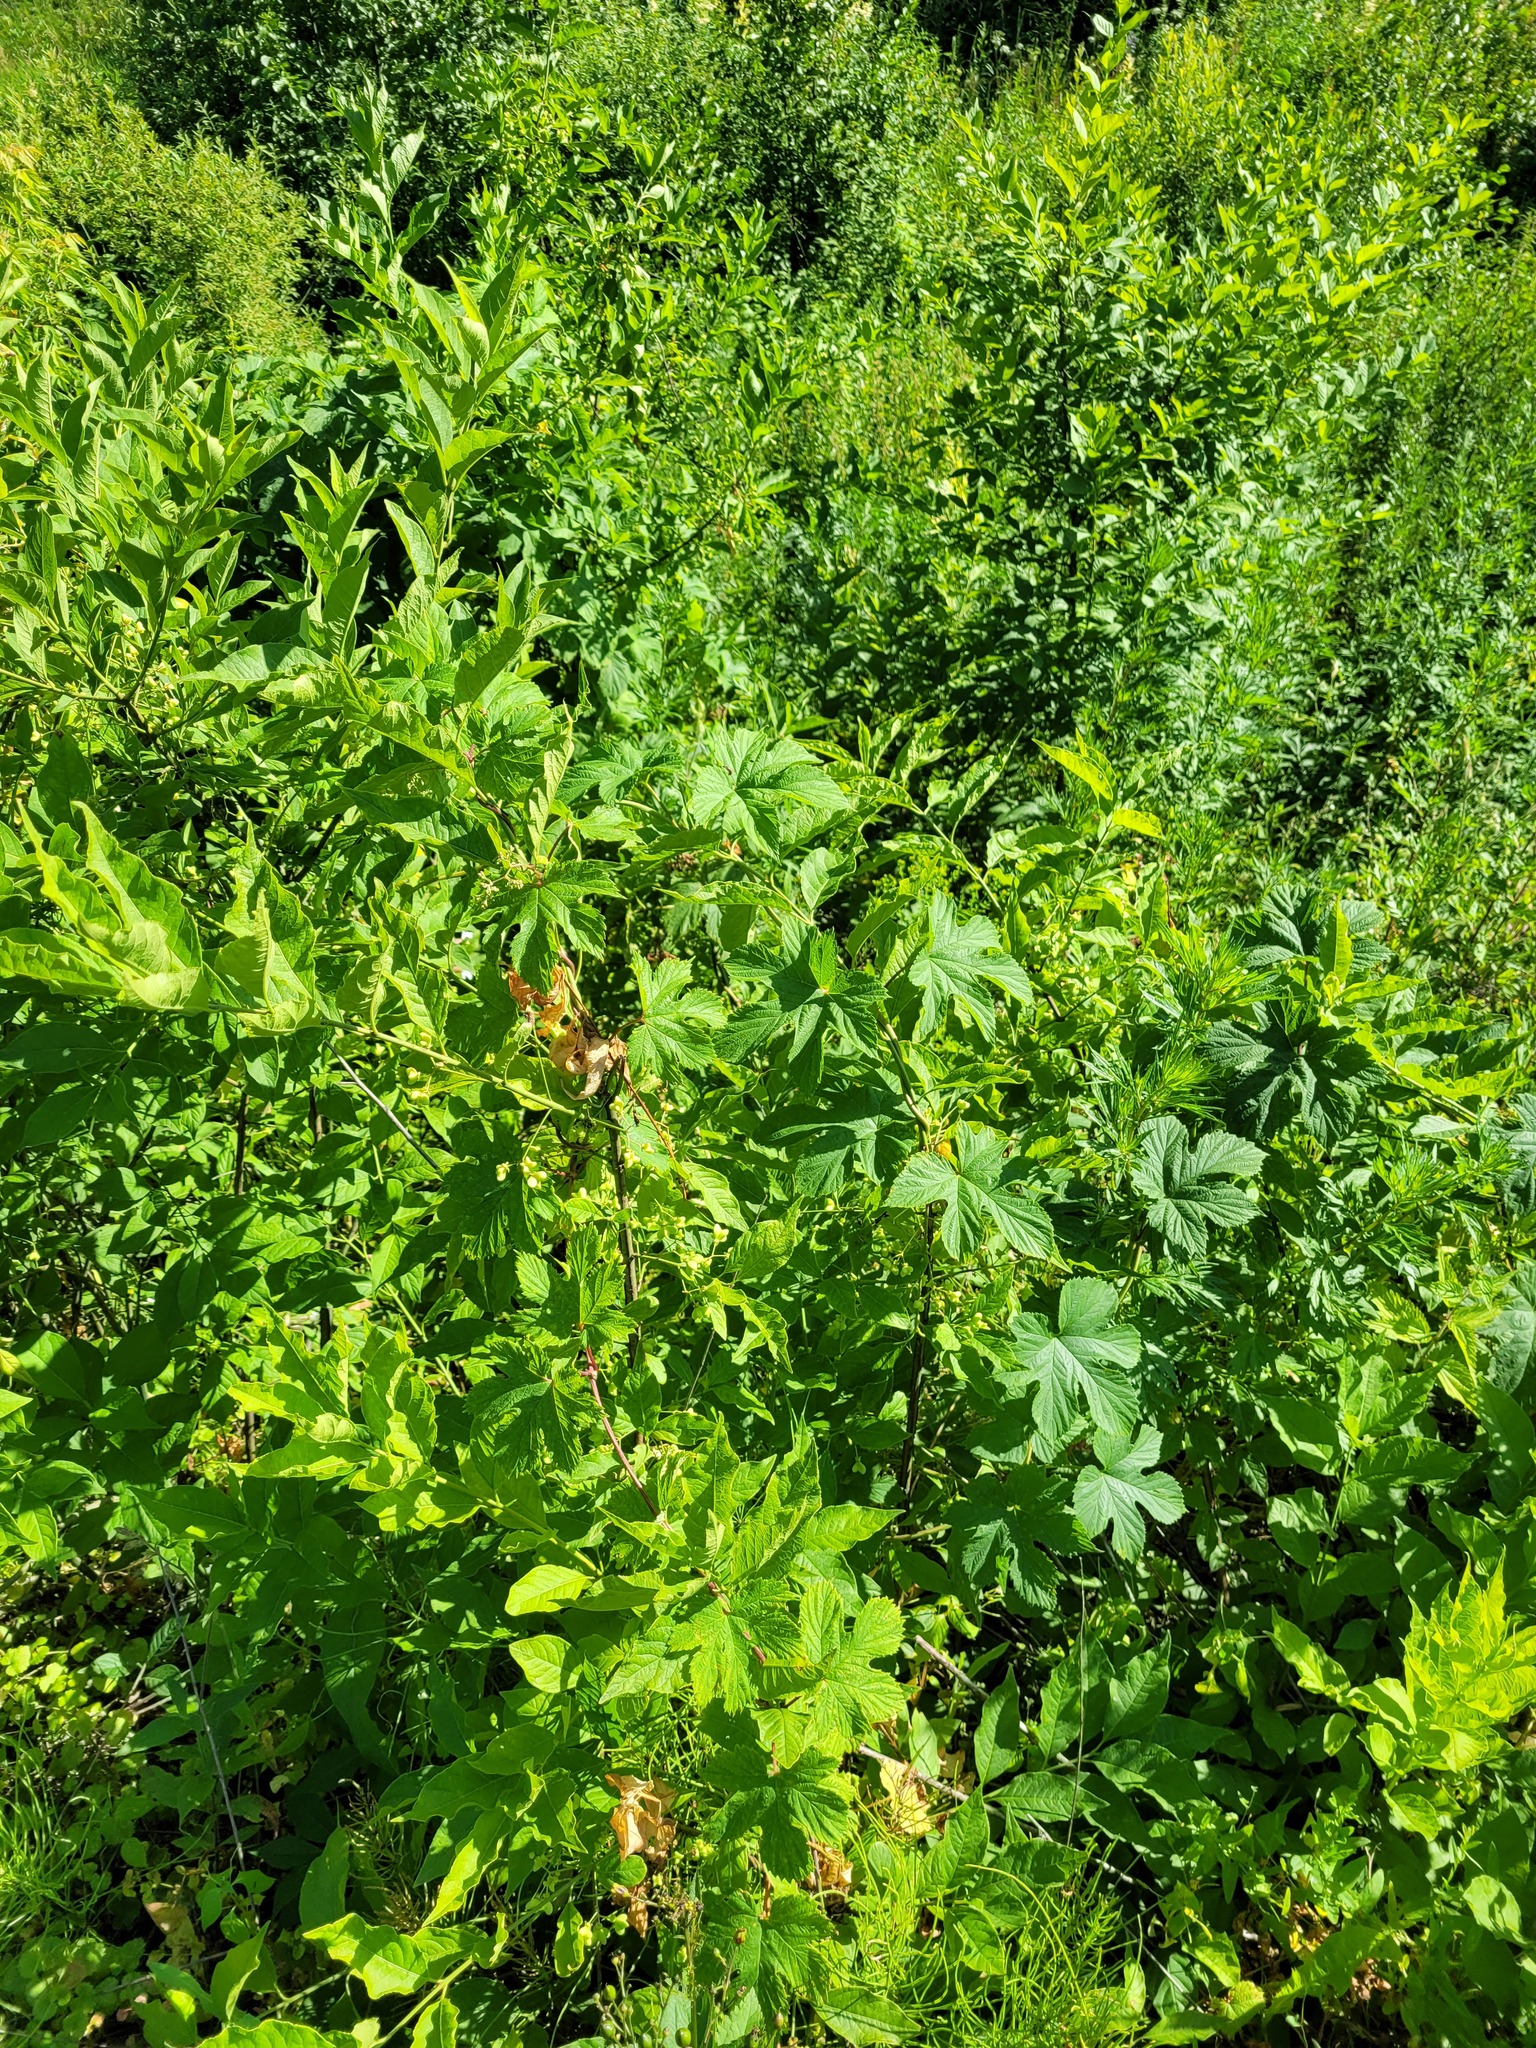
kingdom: Plantae
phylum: Tracheophyta
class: Magnoliopsida
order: Rosales
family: Cannabaceae
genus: Humulus
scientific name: Humulus lupulus
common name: Hop
